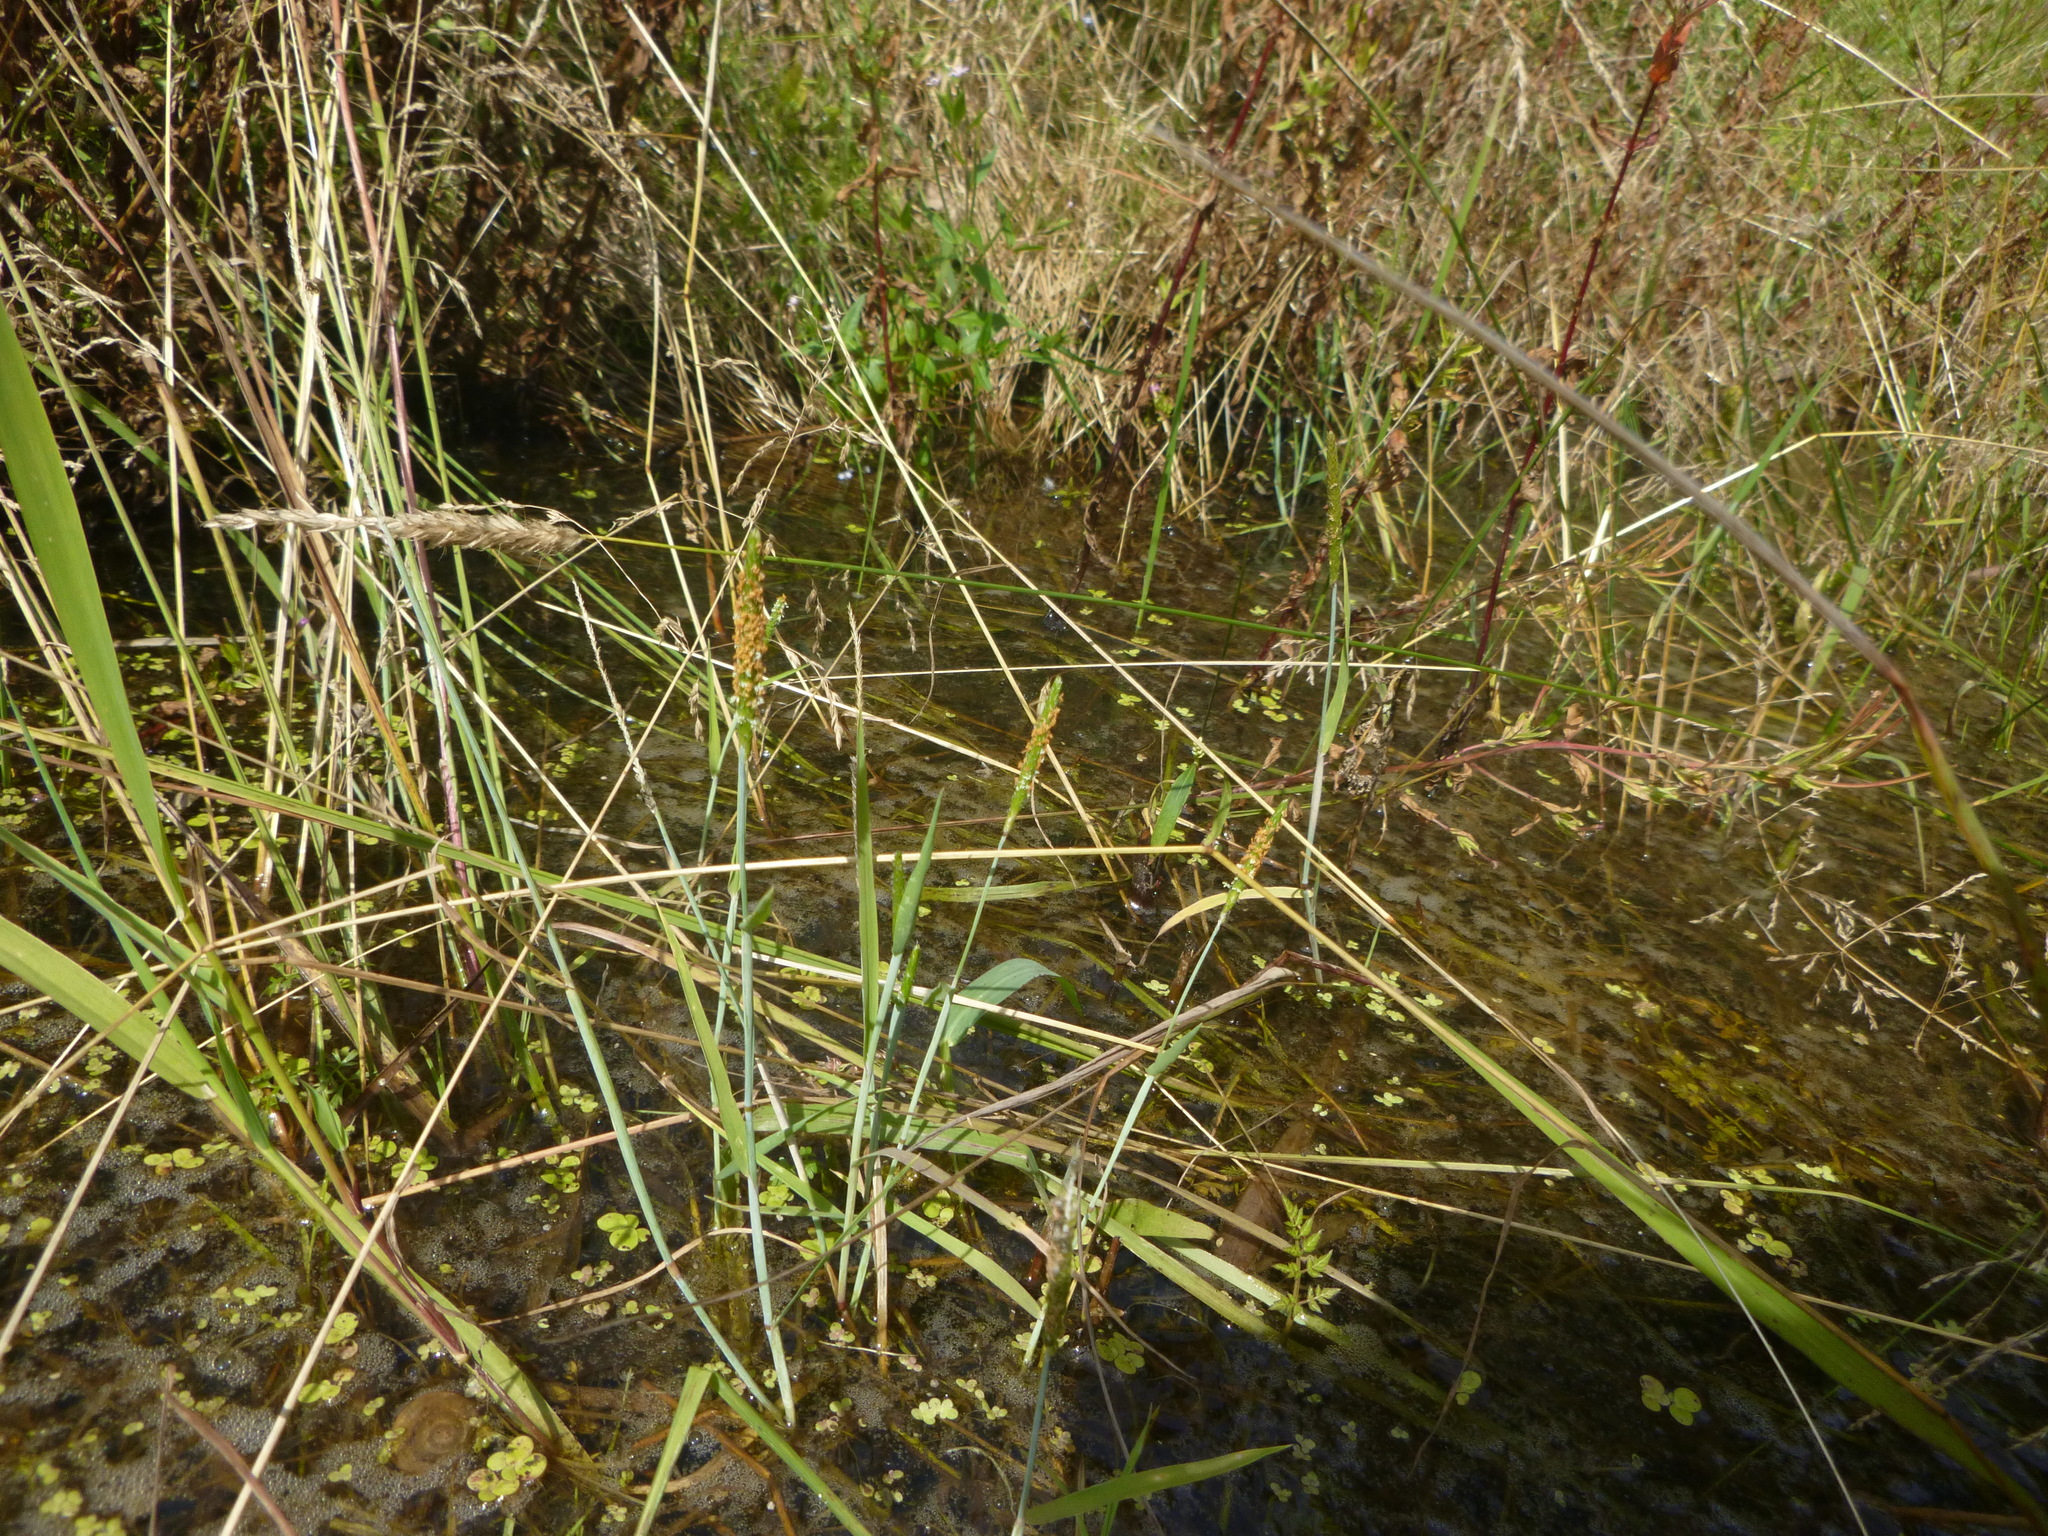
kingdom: Plantae
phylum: Tracheophyta
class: Liliopsida
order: Poales
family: Poaceae
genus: Alopecurus
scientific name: Alopecurus aequalis
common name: Orange foxtail
